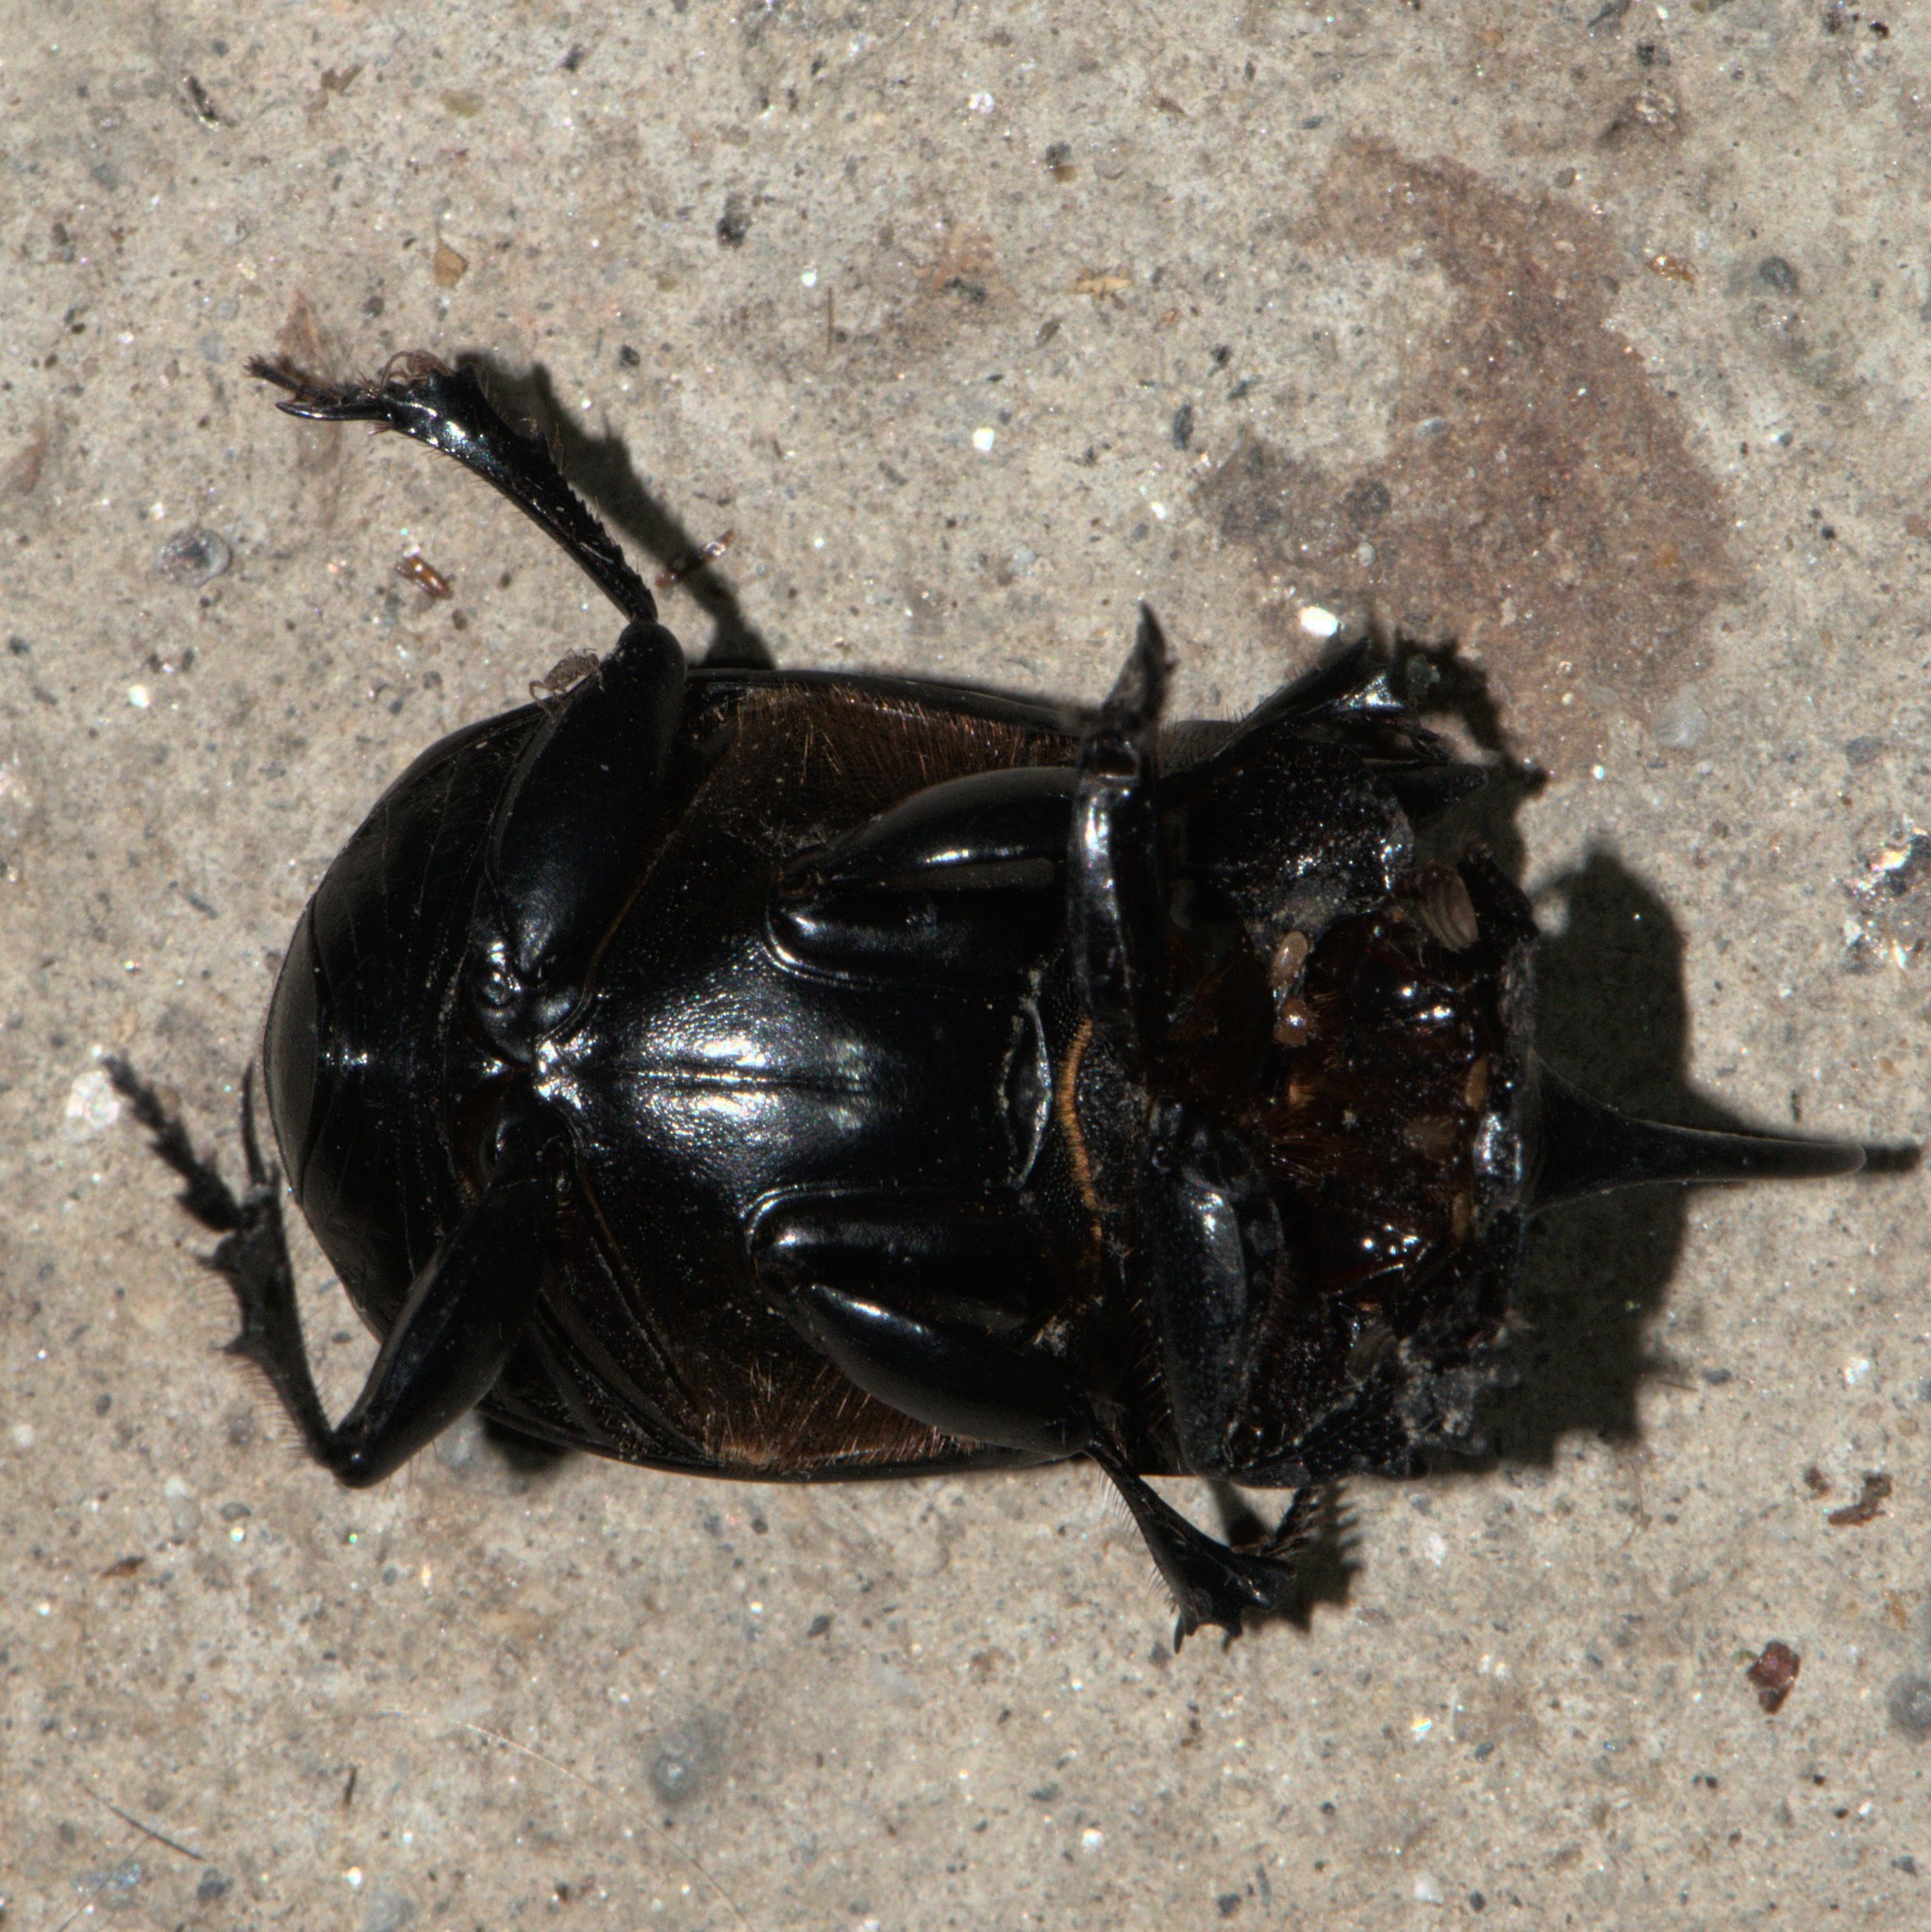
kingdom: Animalia
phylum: Arthropoda
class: Insecta
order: Coleoptera
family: Scarabaeidae
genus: Copris
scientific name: Copris sacontala
